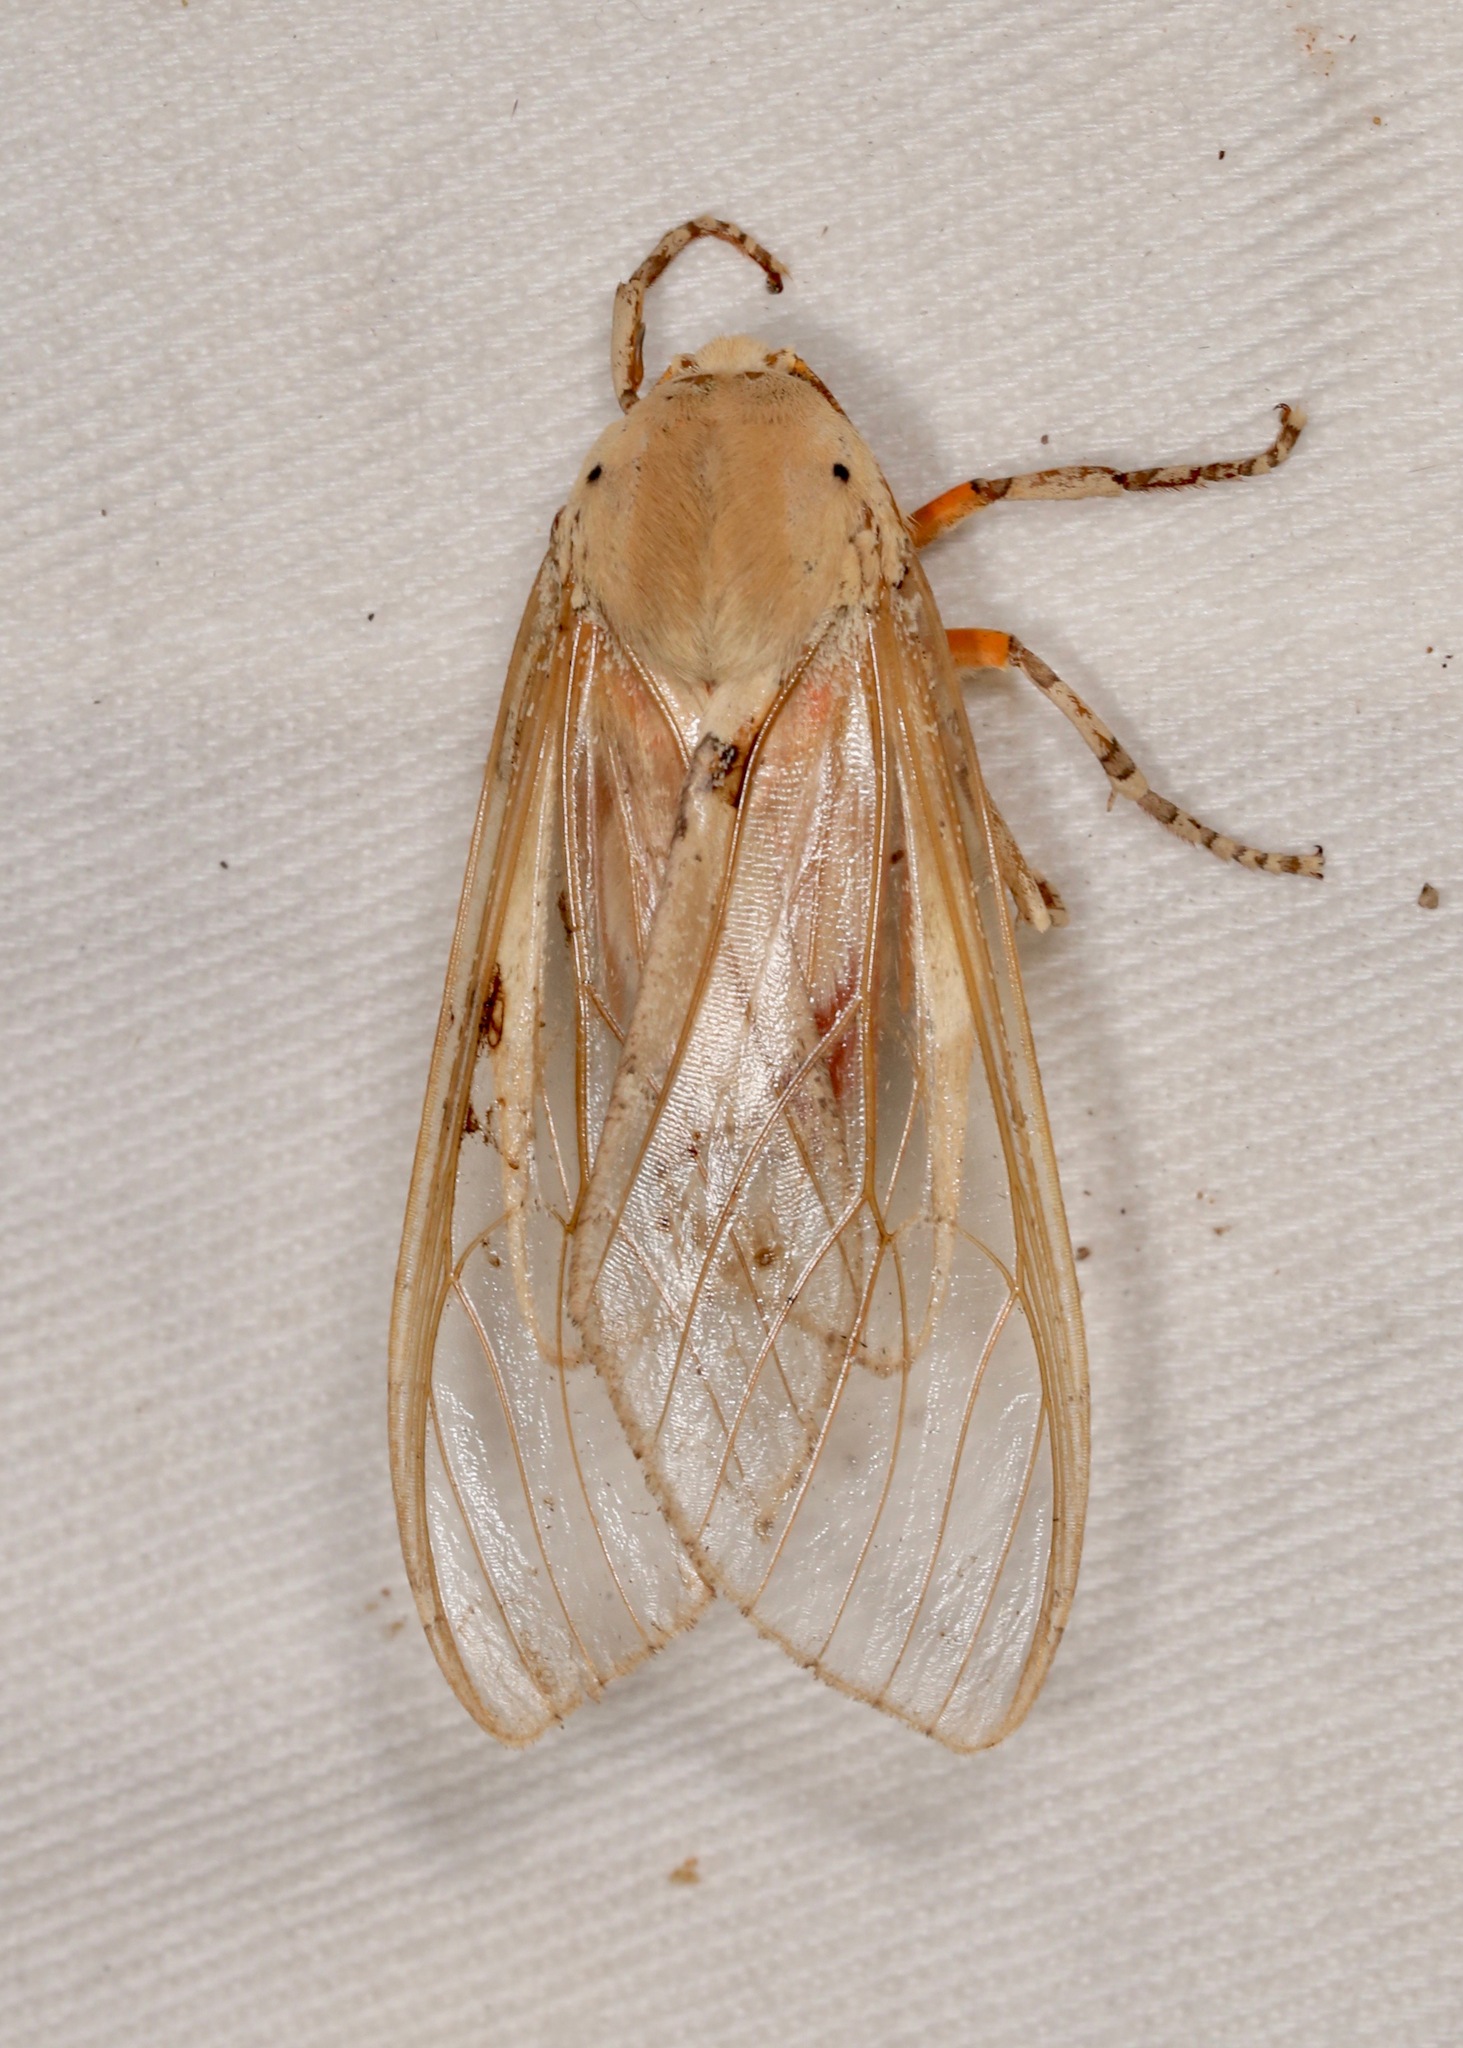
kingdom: Animalia
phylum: Arthropoda
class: Insecta
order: Lepidoptera
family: Erebidae
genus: Hemihyalea
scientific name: Hemihyalea edwardsii
